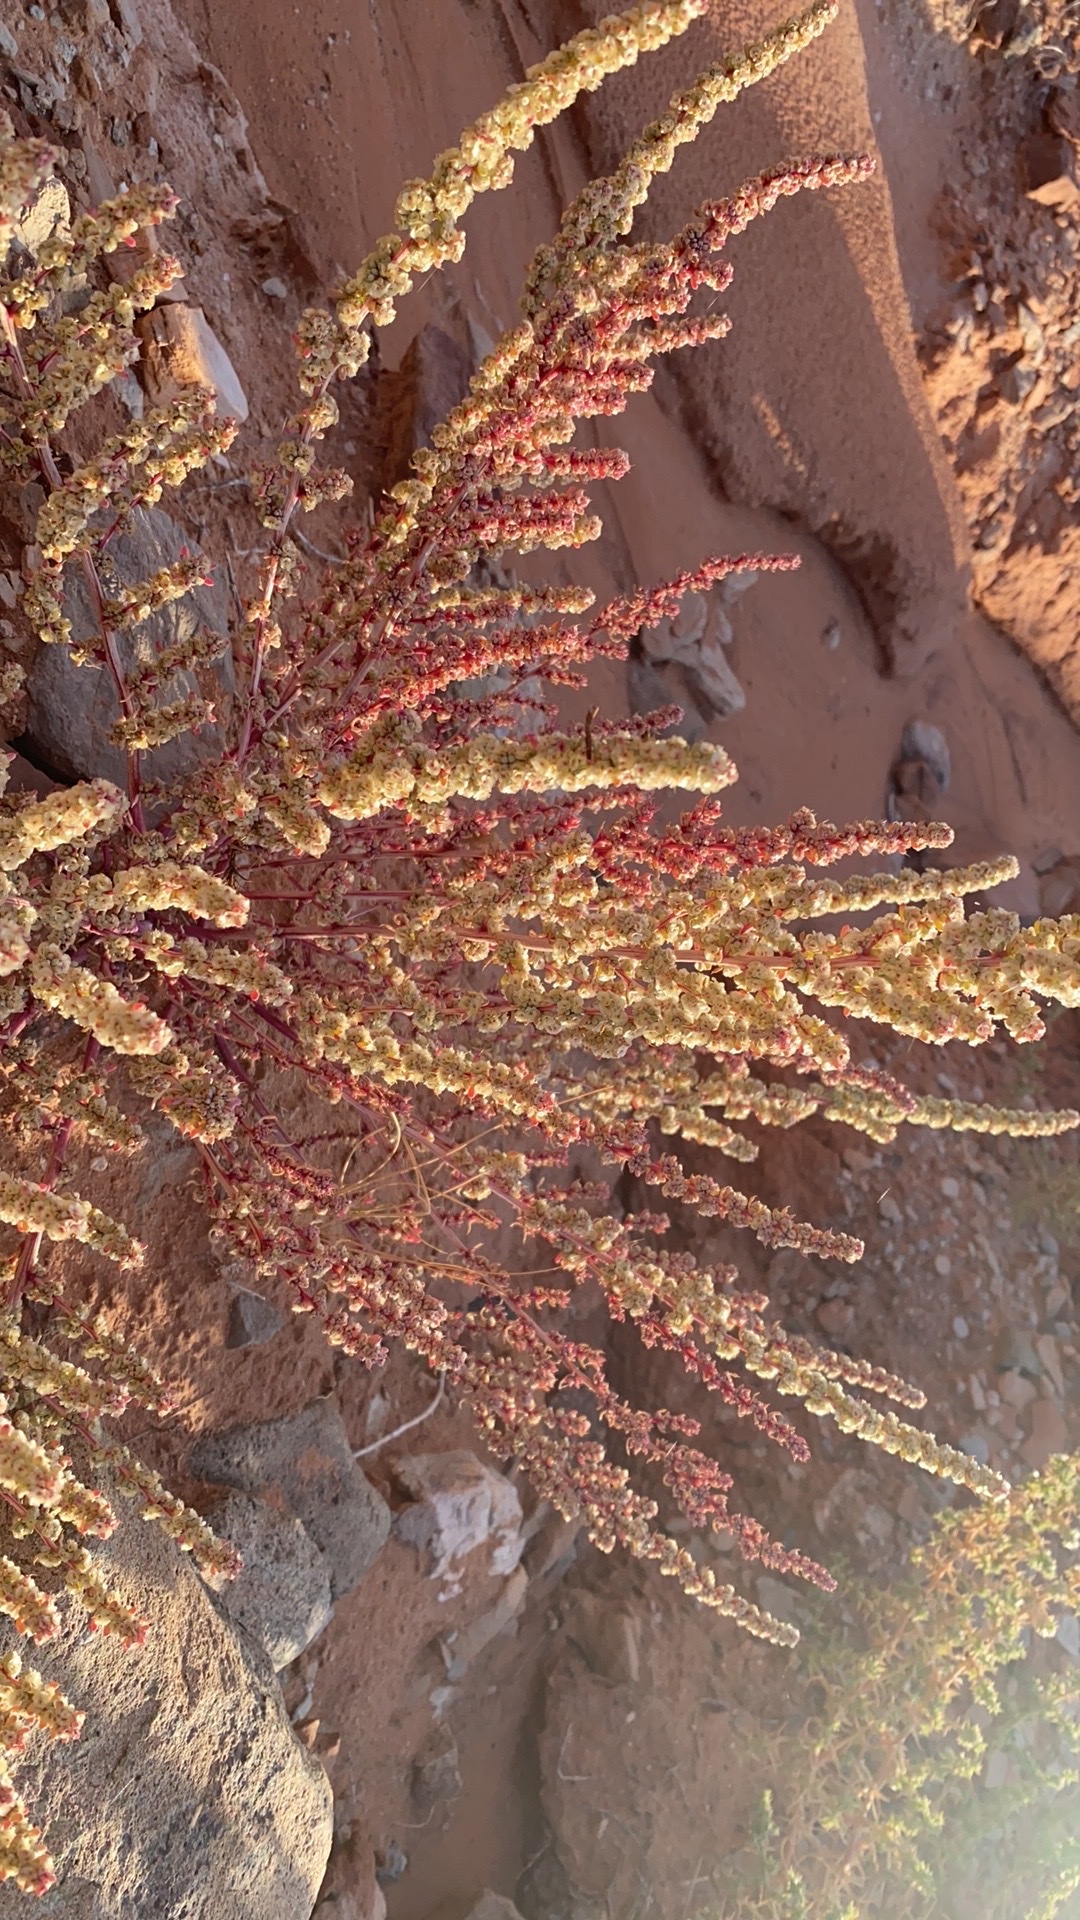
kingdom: Plantae
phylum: Tracheophyta
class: Magnoliopsida
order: Caryophyllales
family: Amaranthaceae
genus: Halogeton
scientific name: Halogeton glomeratus
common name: Saltlover
